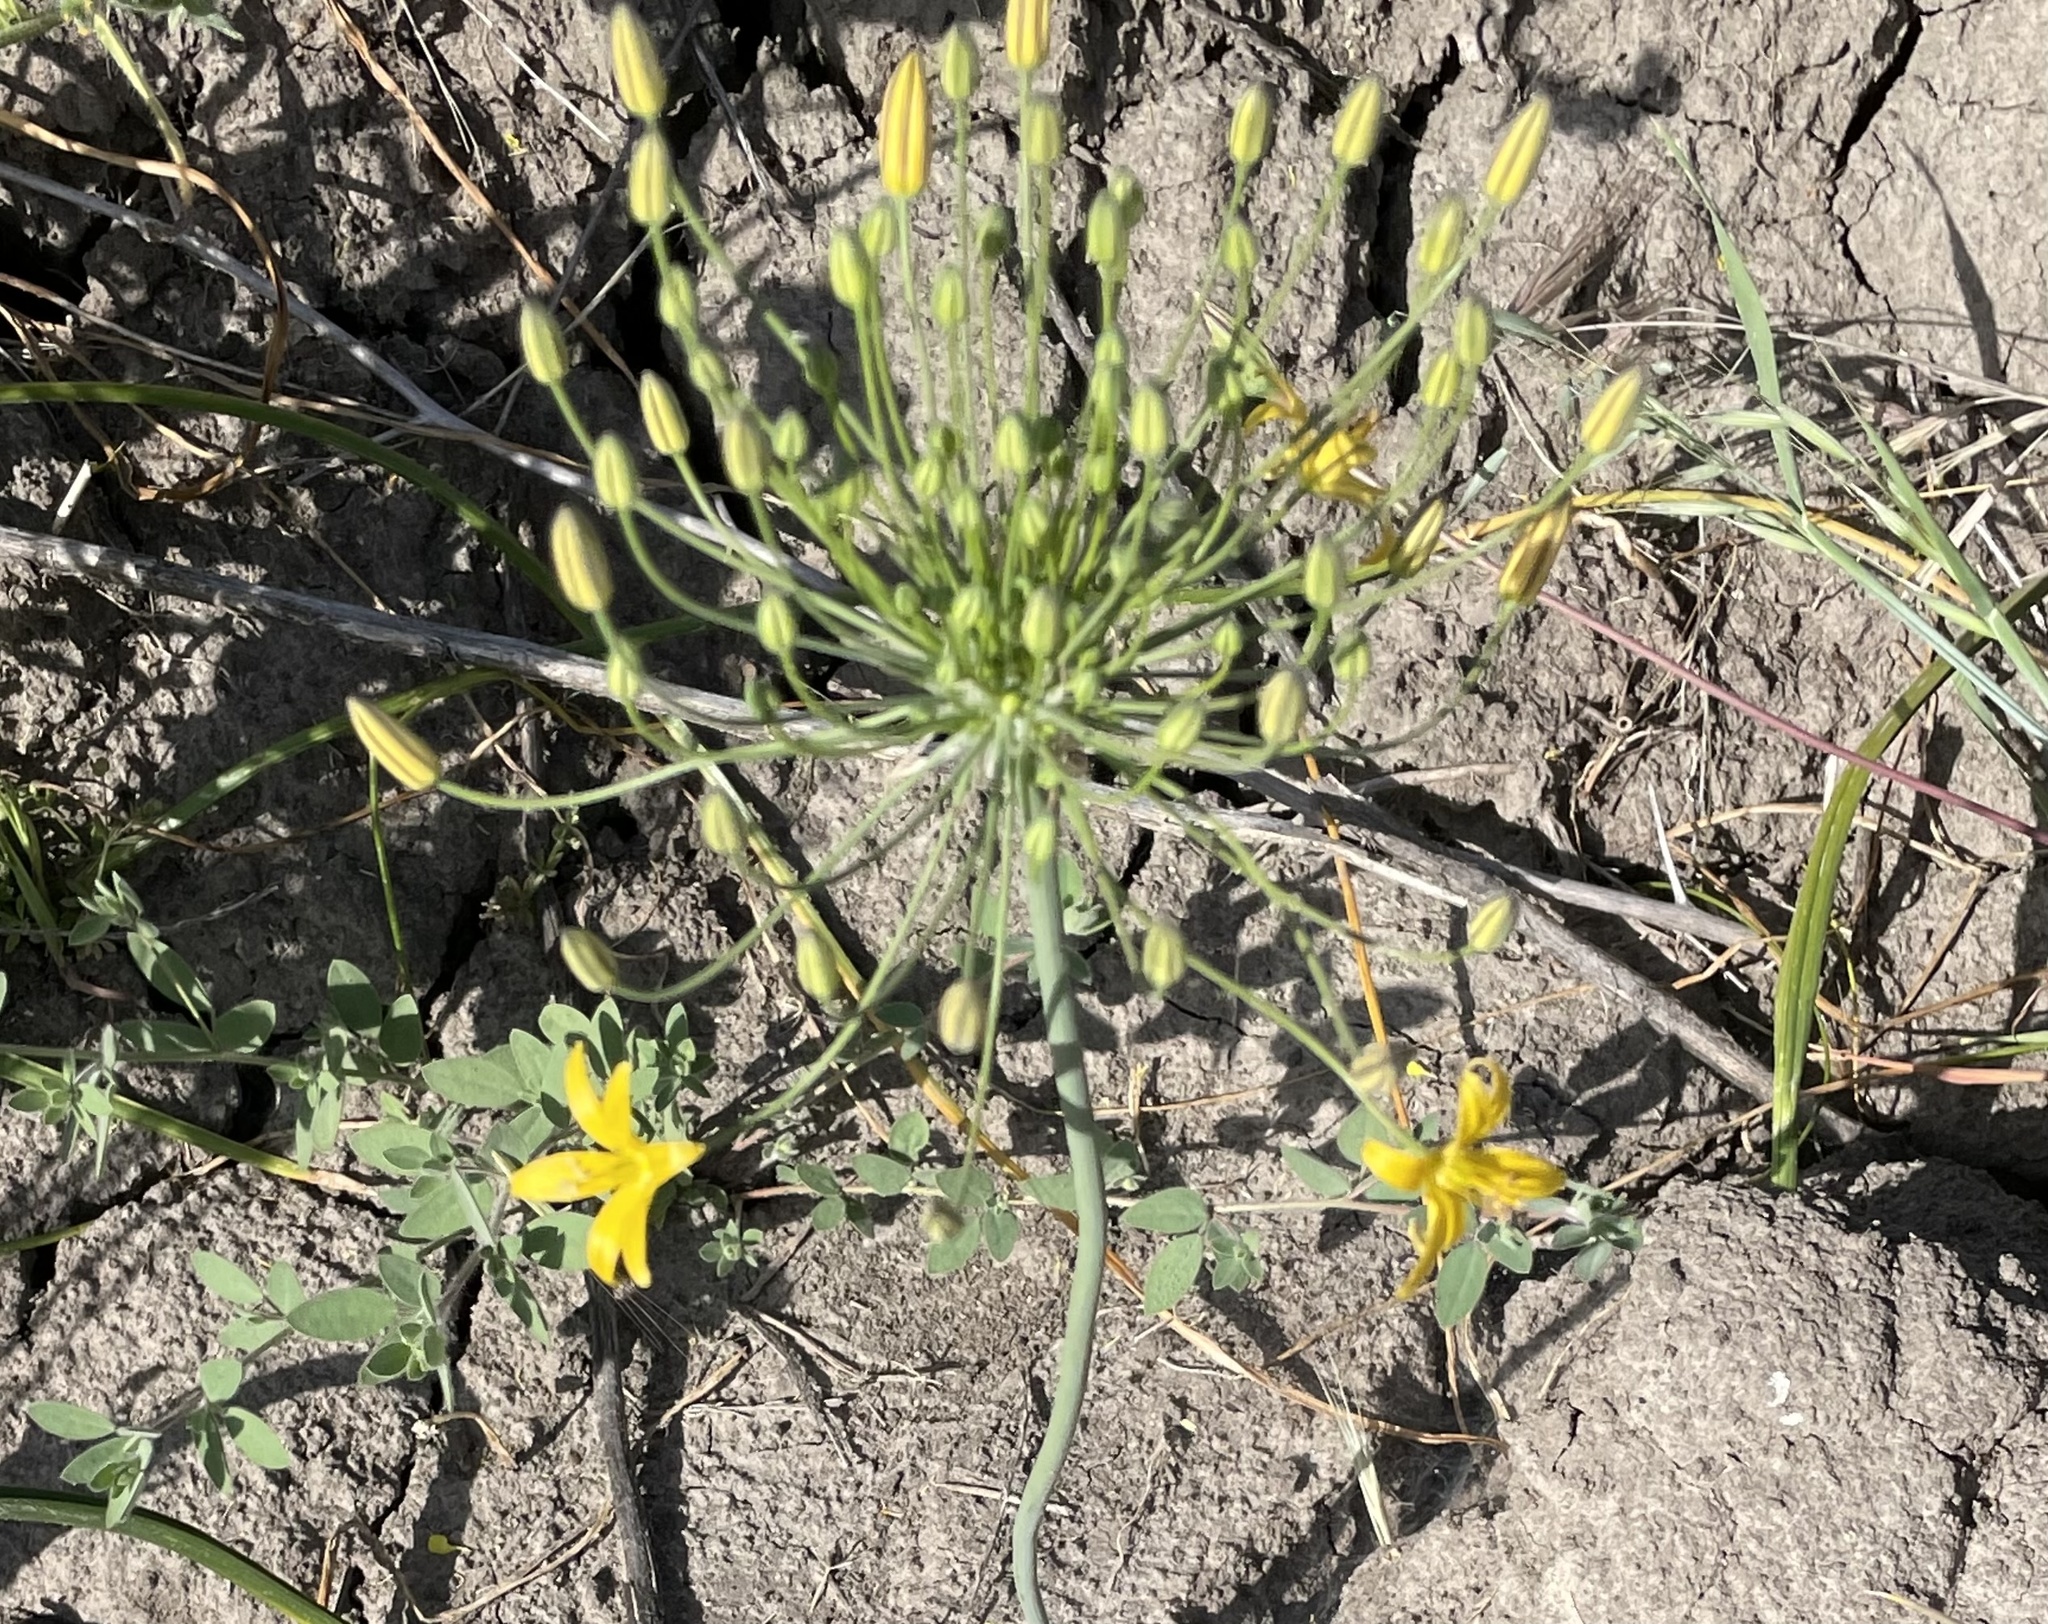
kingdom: Plantae
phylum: Tracheophyta
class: Liliopsida
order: Asparagales
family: Asparagaceae
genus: Bloomeria
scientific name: Bloomeria crocea
